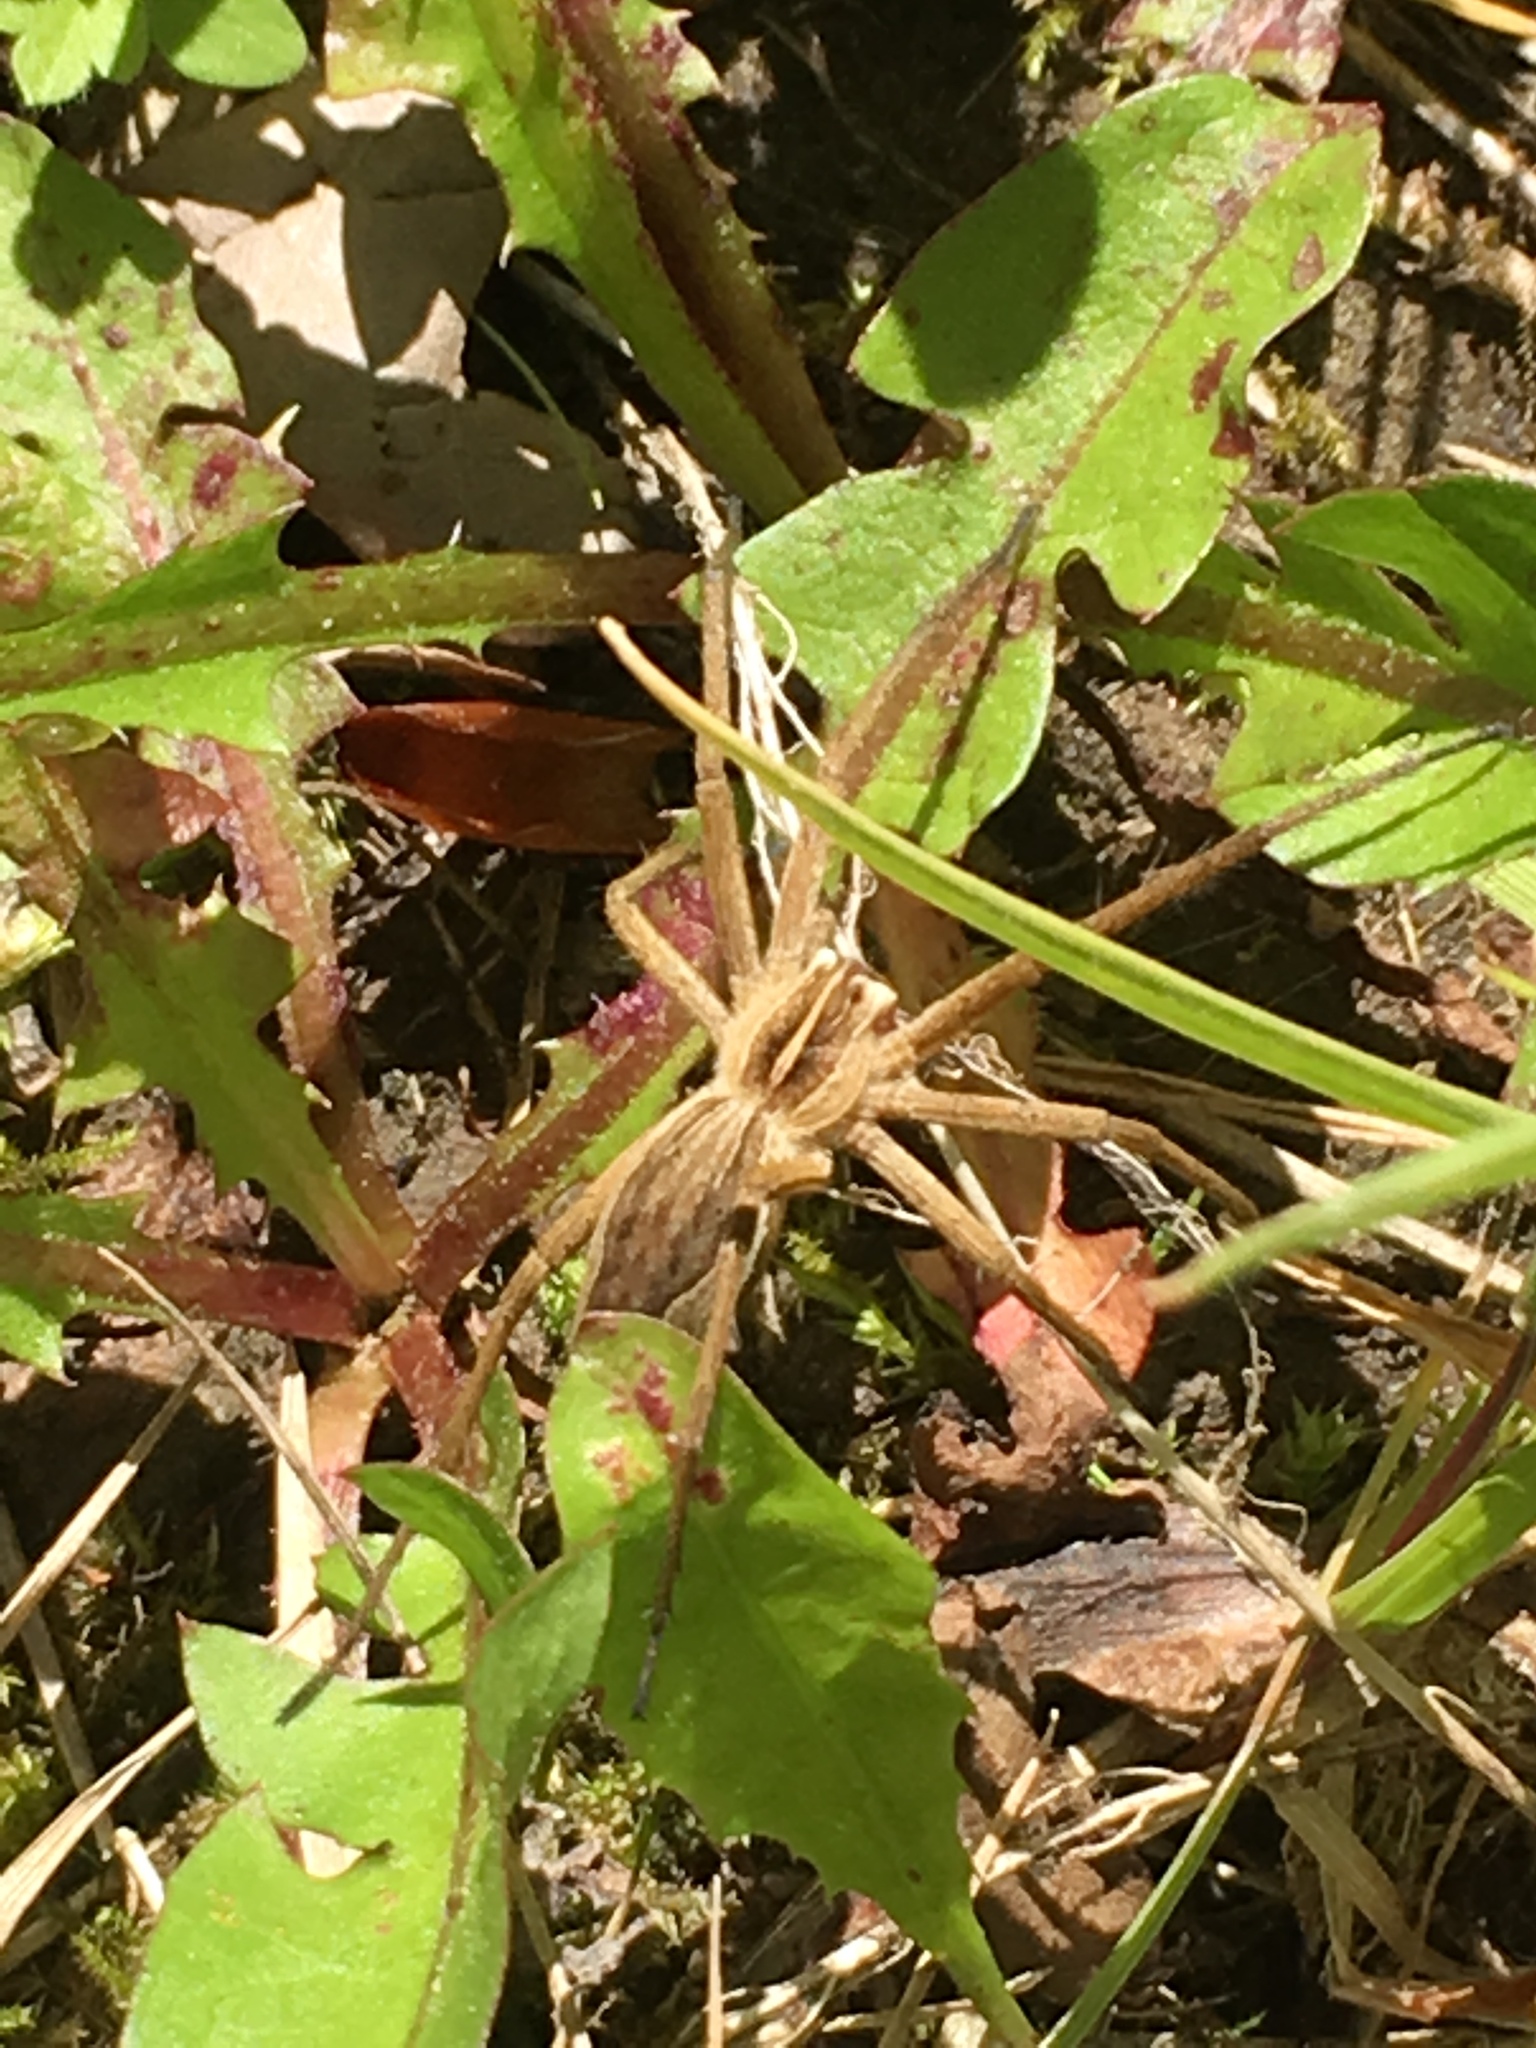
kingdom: Animalia
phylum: Arthropoda
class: Arachnida
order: Araneae
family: Pisauridae
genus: Pisaura
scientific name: Pisaura mirabilis
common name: Tent spider
